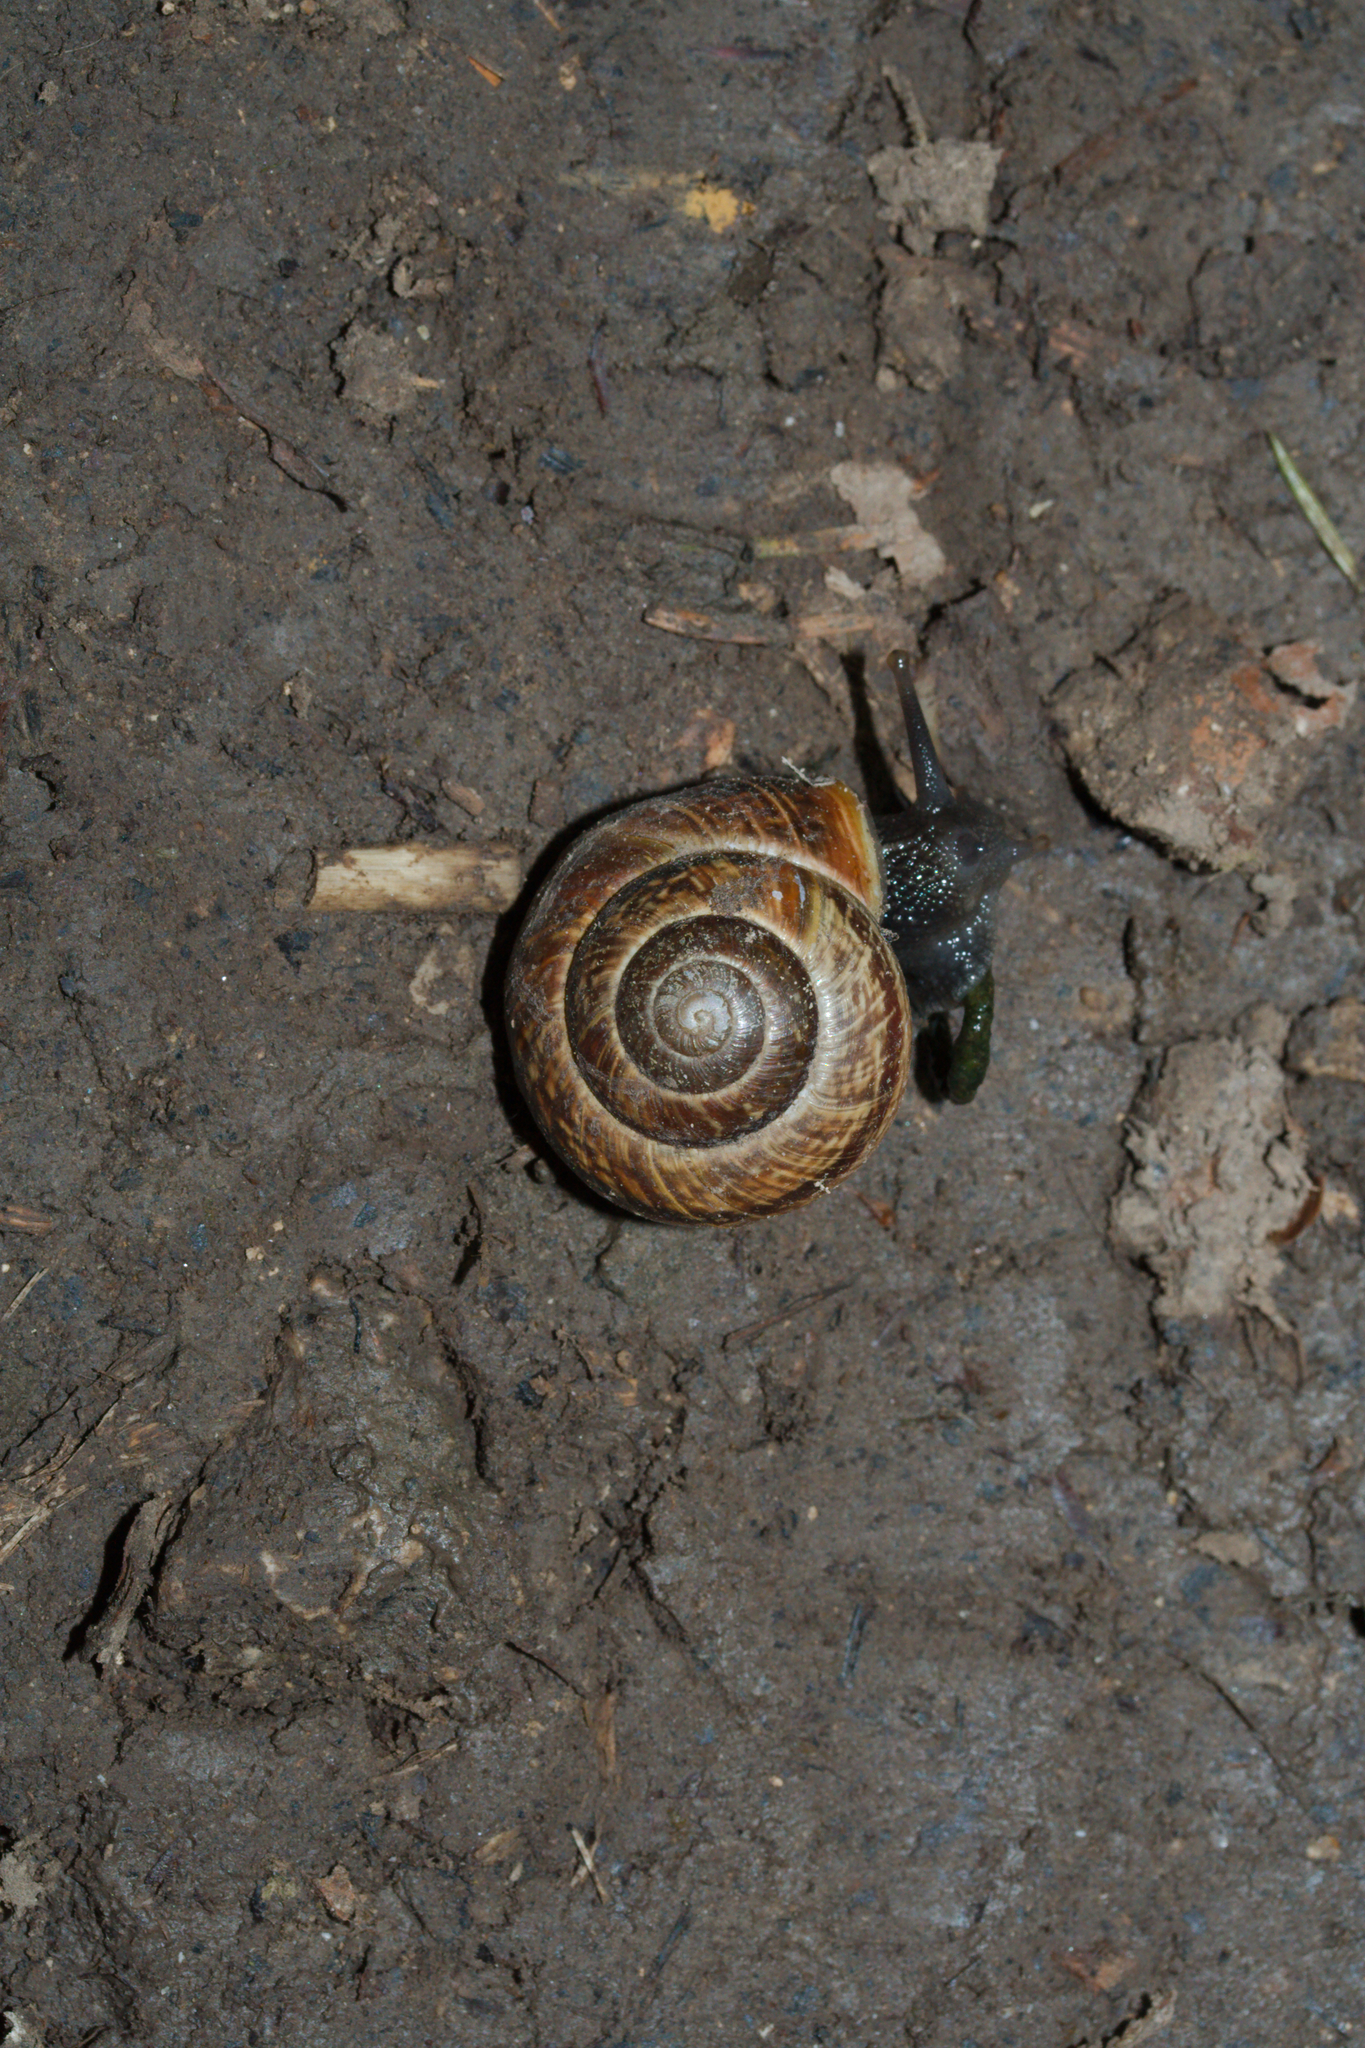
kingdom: Animalia
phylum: Mollusca
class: Gastropoda
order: Stylommatophora
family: Helicidae
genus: Arianta
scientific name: Arianta arbustorum
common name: Copse snail
